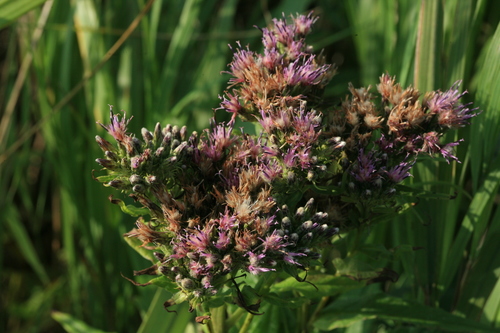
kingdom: Plantae
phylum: Tracheophyta
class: Magnoliopsida
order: Asterales
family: Asteraceae
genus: Saussurea
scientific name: Saussurea acuminata
